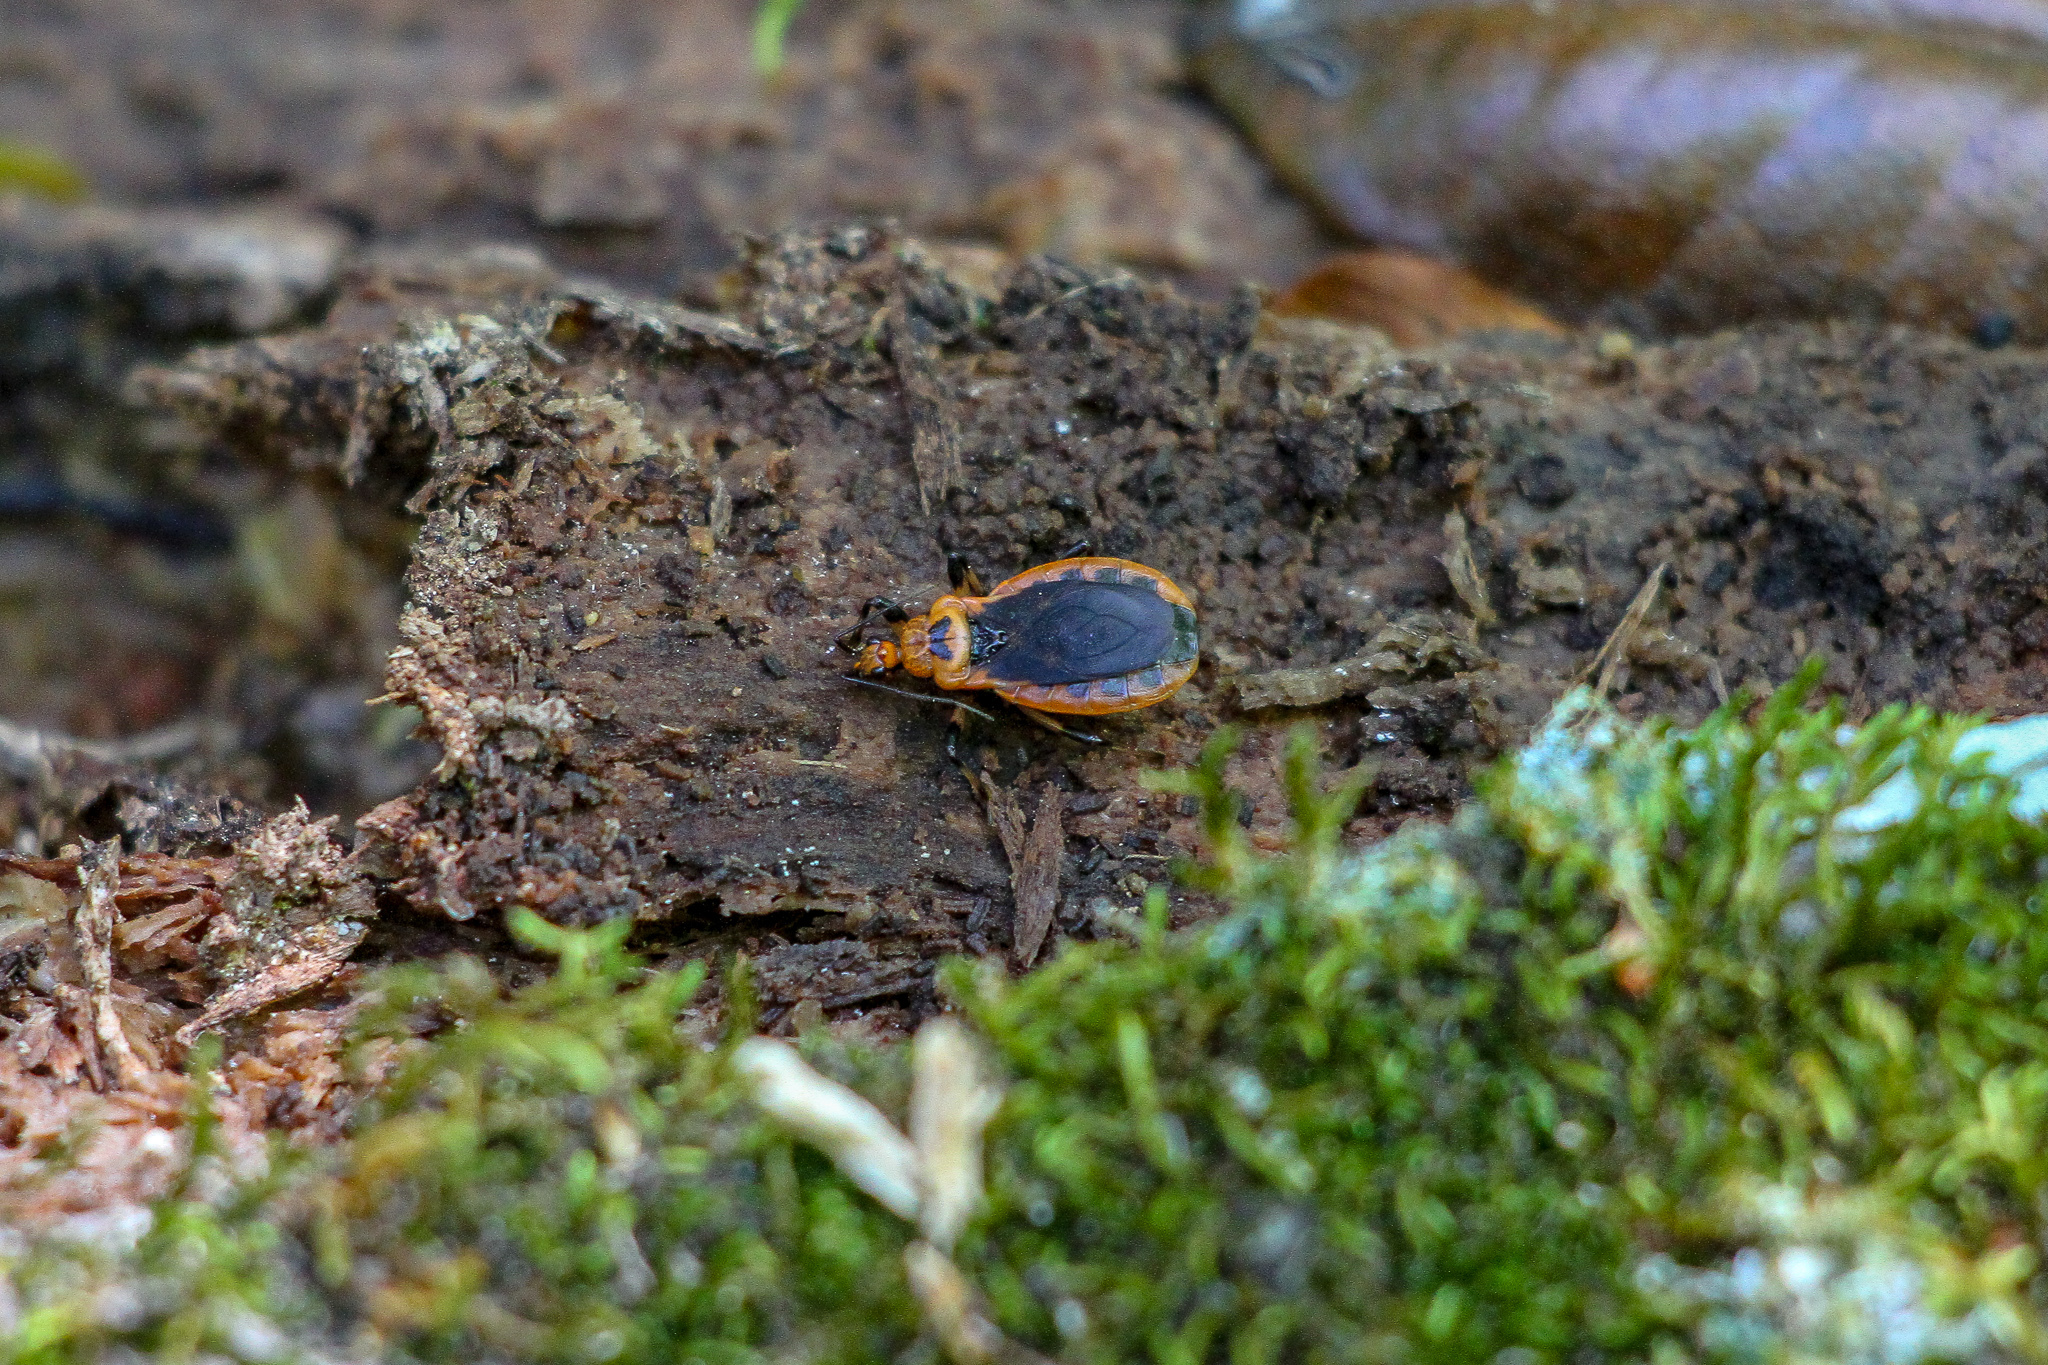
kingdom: Animalia
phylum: Arthropoda
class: Insecta
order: Hemiptera
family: Reduviidae
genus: Rhiginia
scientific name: Rhiginia cruciata
